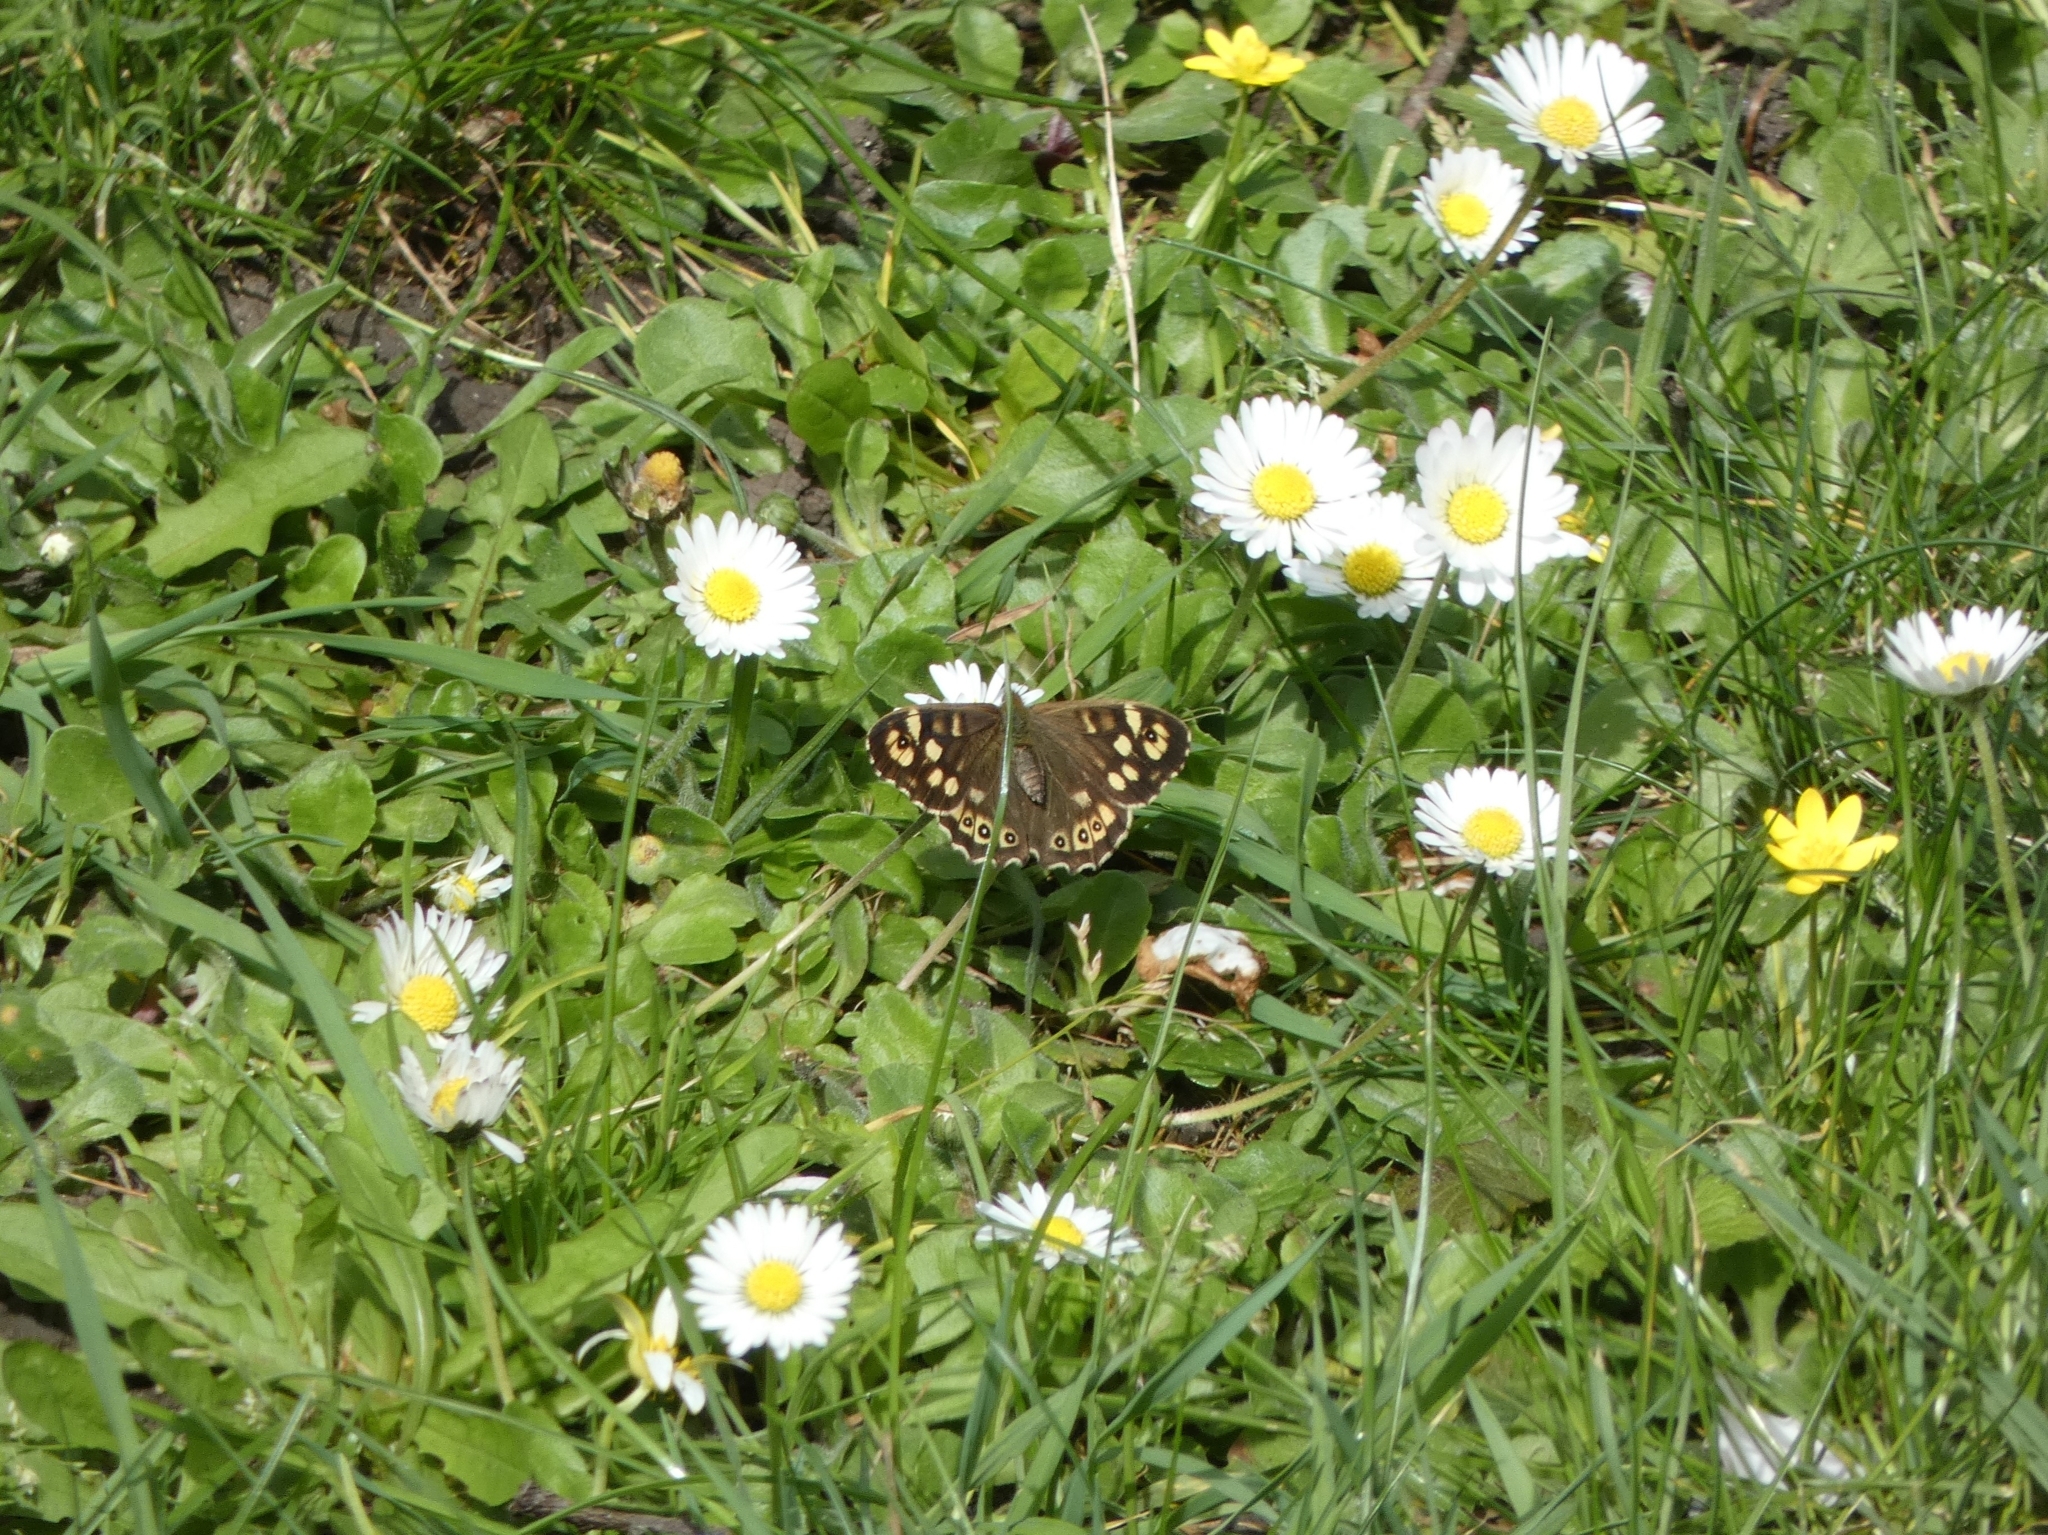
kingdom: Animalia
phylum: Arthropoda
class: Insecta
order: Lepidoptera
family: Nymphalidae
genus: Pararge
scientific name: Pararge aegeria
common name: Speckled wood
